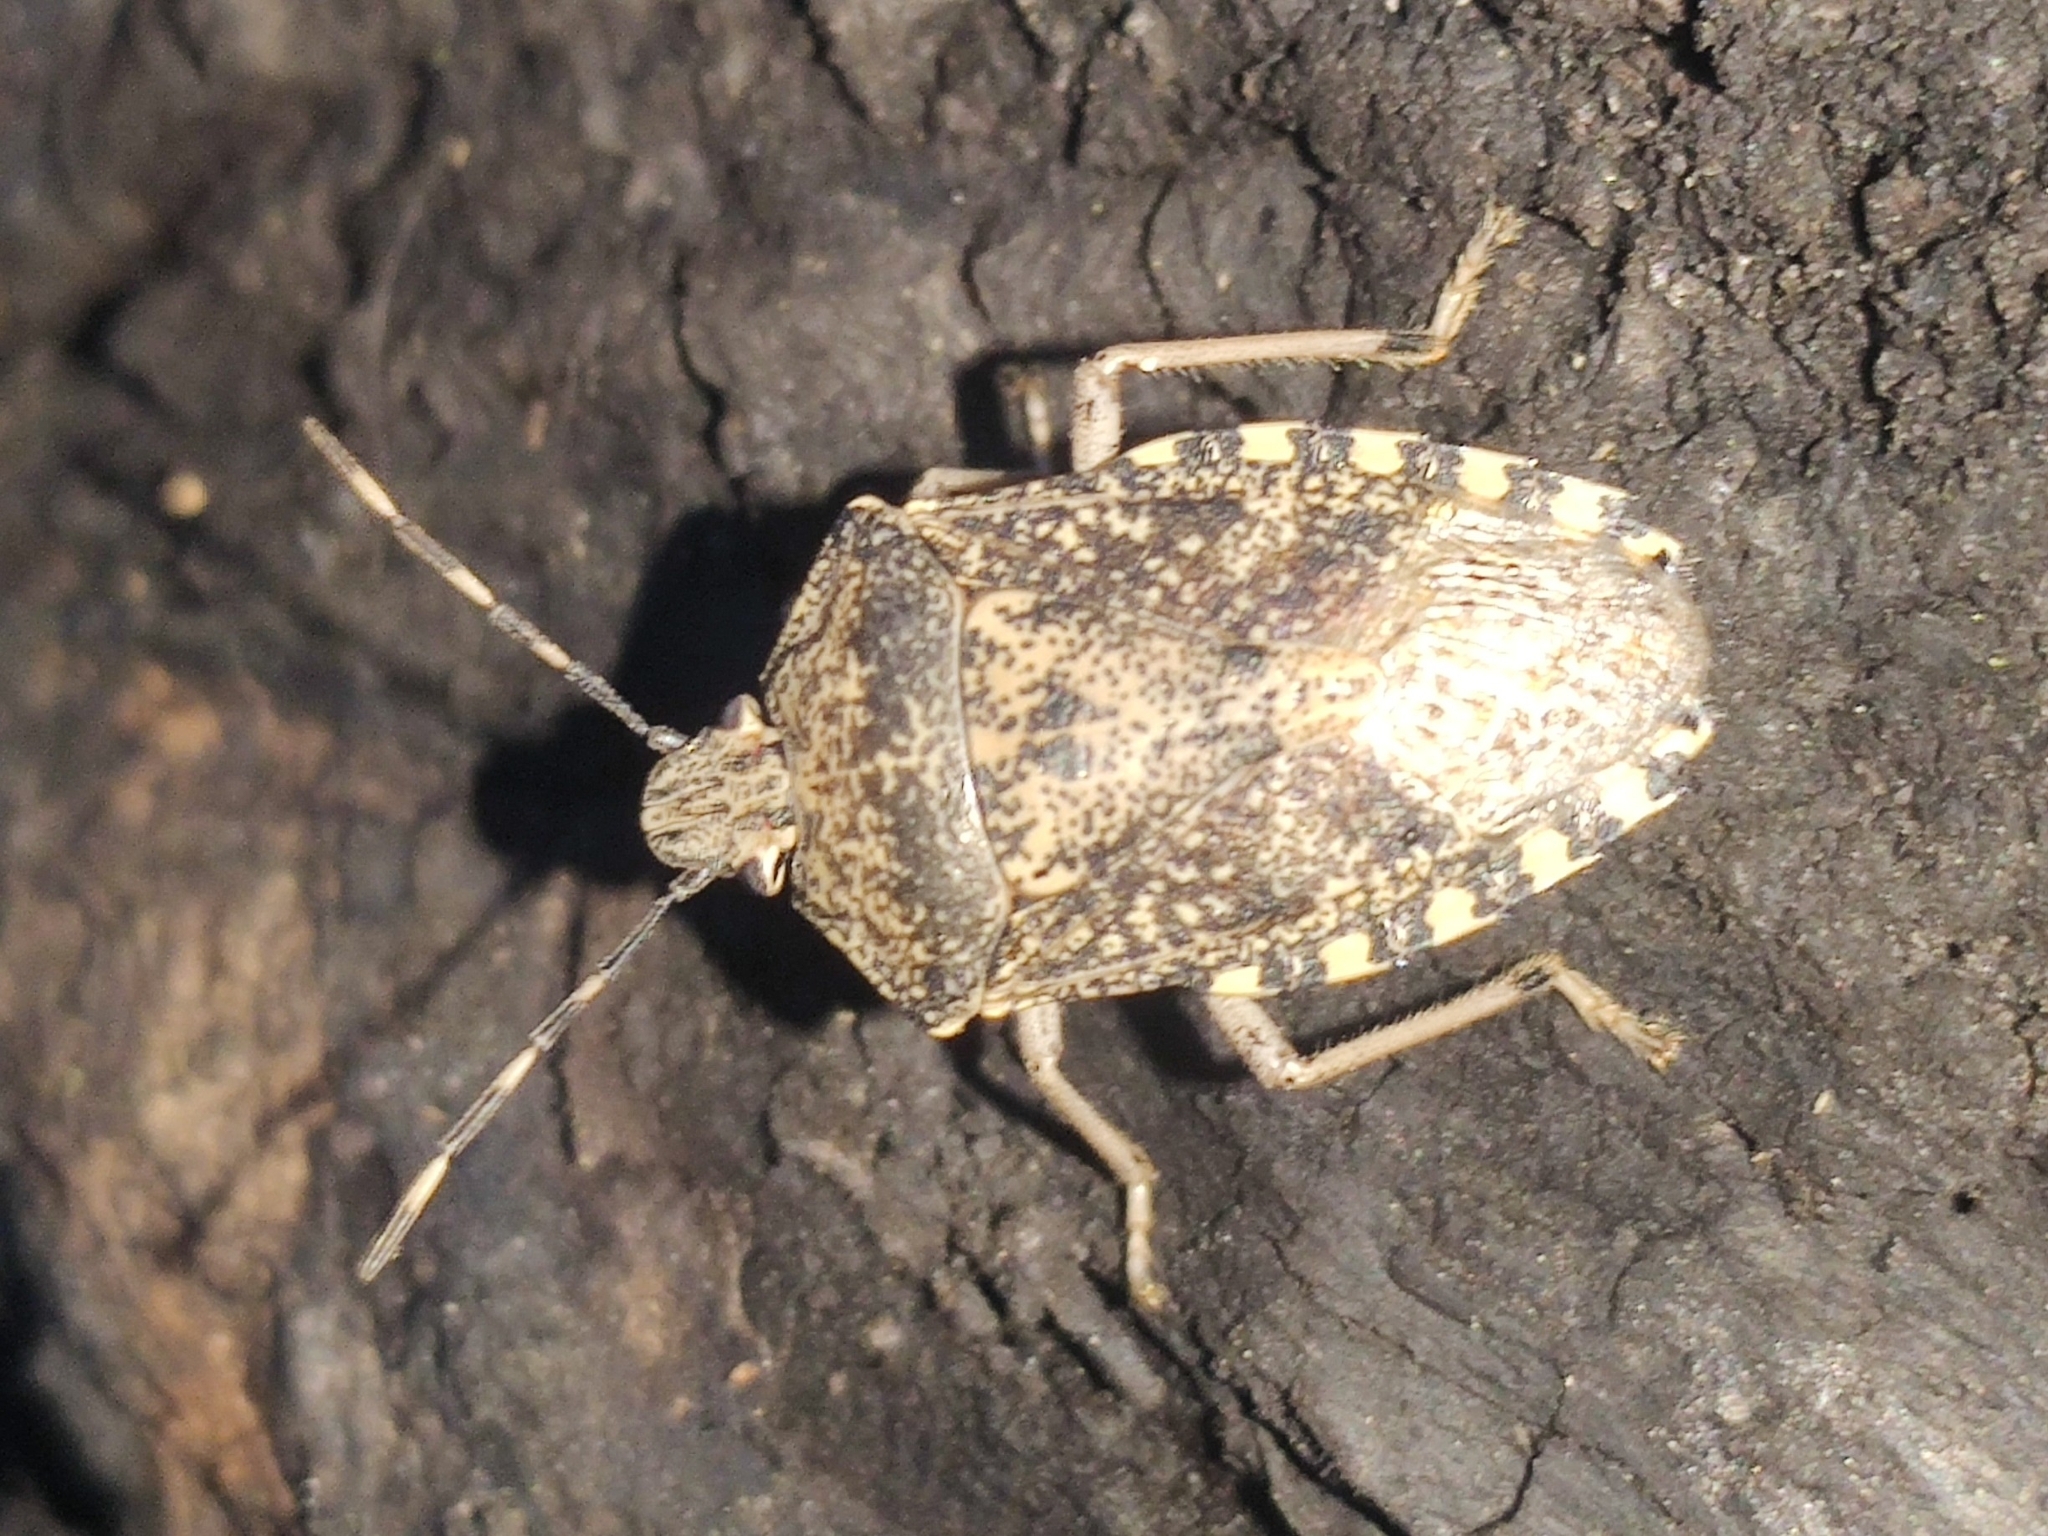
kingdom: Animalia
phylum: Arthropoda
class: Insecta
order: Hemiptera
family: Pentatomidae
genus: Rhaphigaster
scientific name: Rhaphigaster nebulosa
